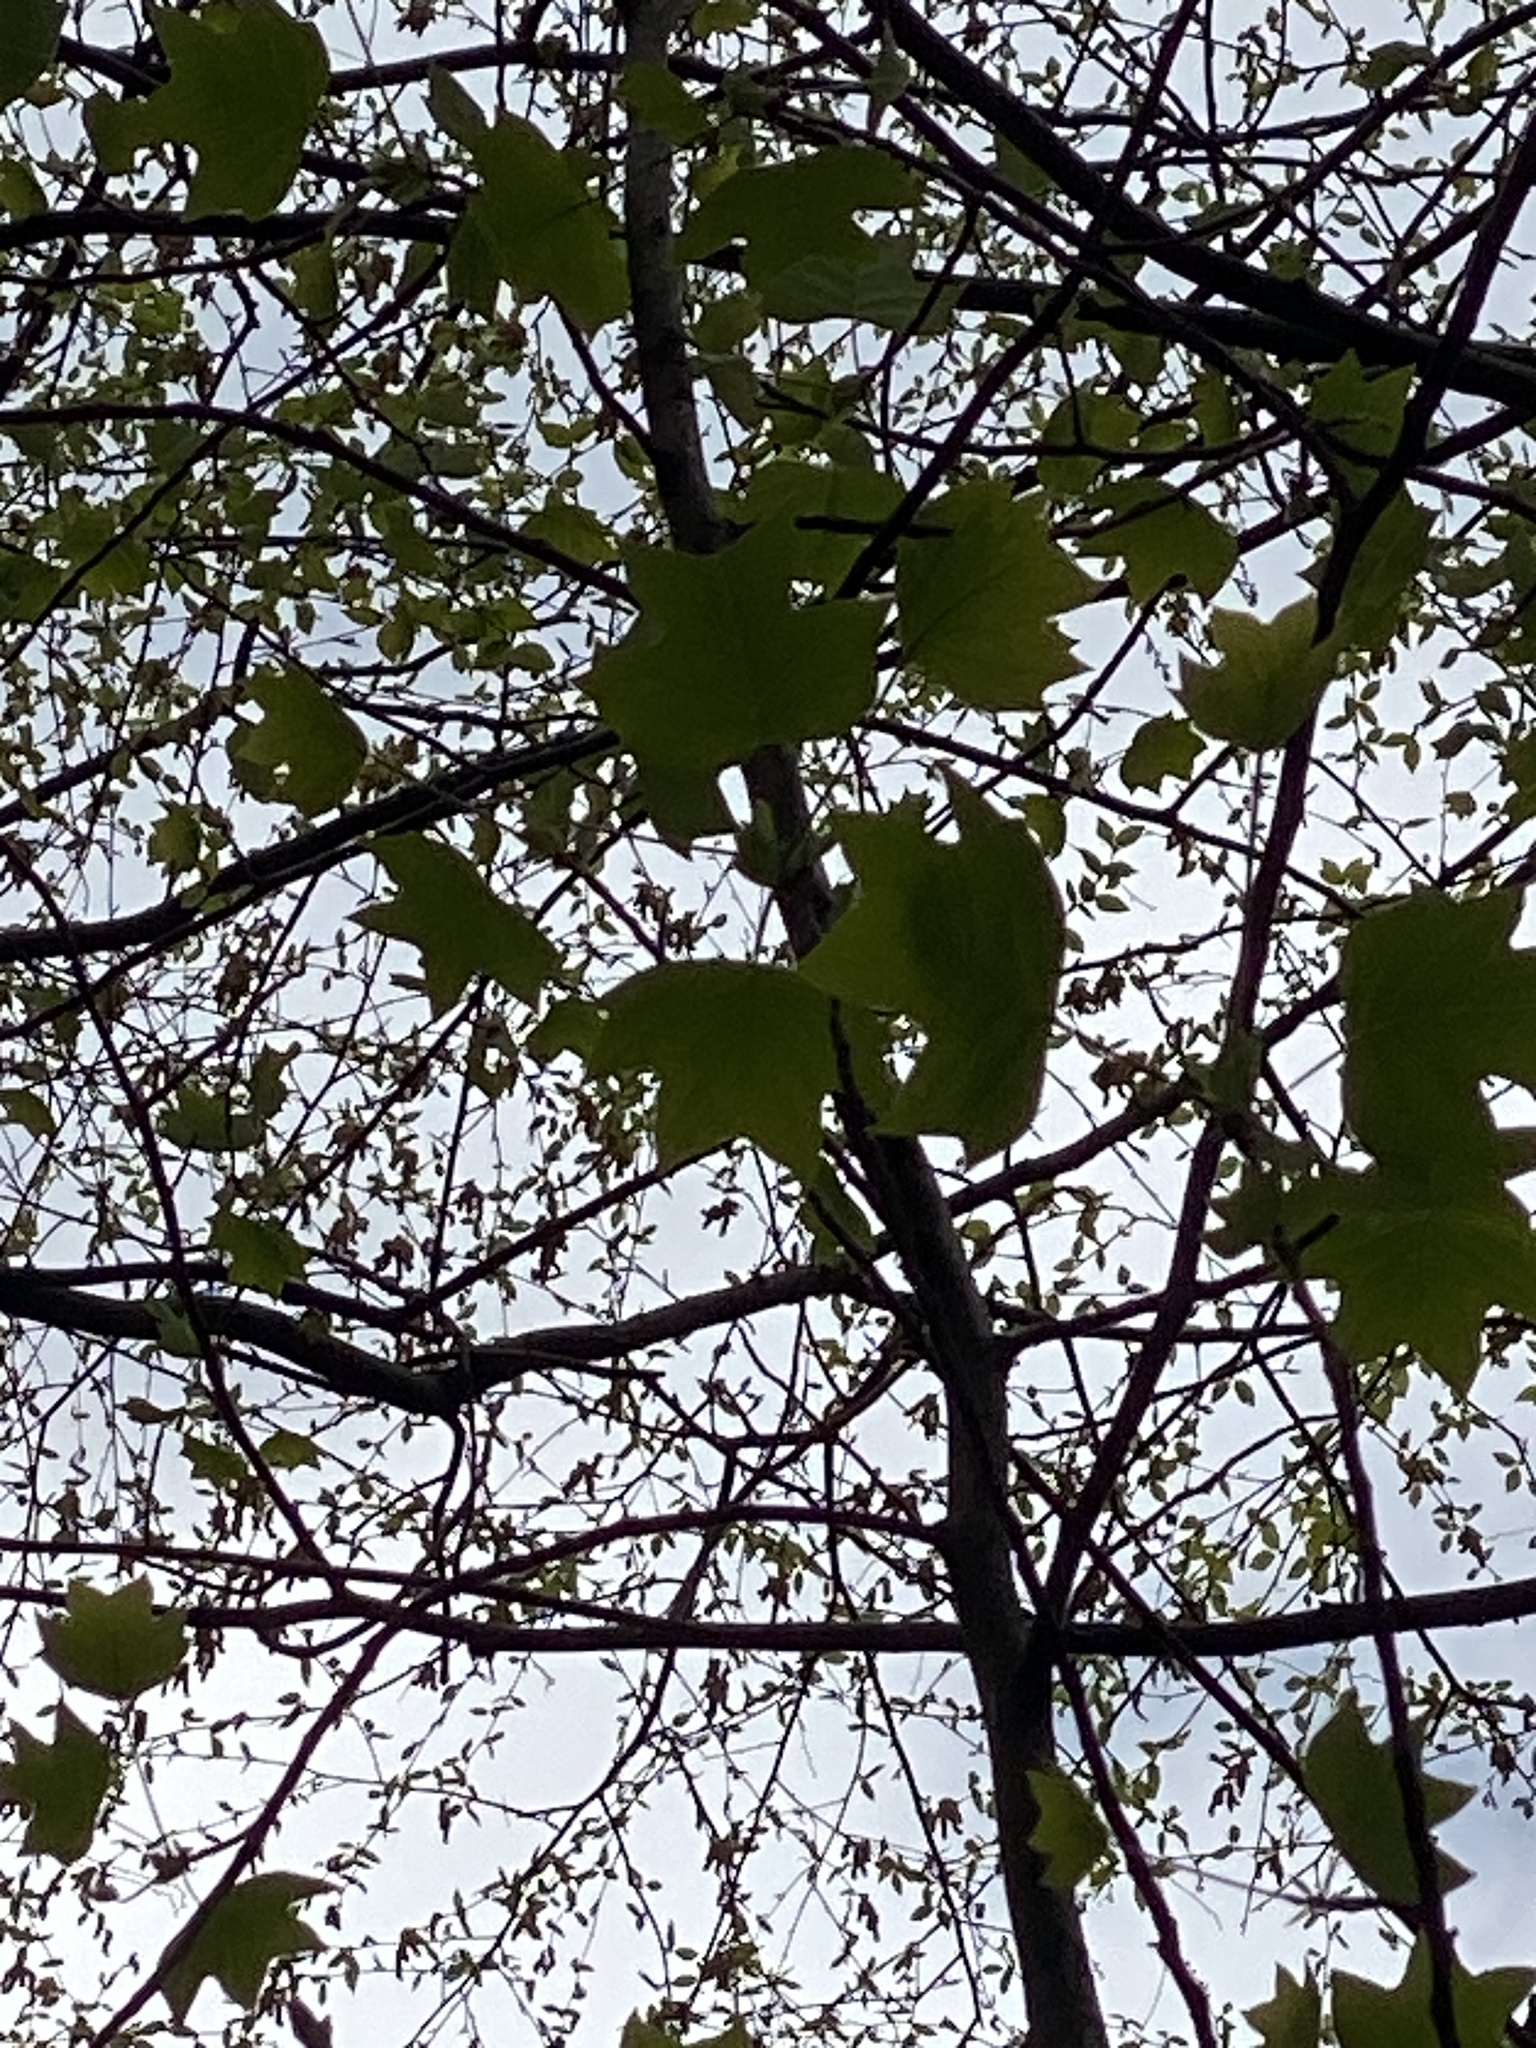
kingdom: Plantae
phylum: Tracheophyta
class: Magnoliopsida
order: Magnoliales
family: Magnoliaceae
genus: Liriodendron
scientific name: Liriodendron tulipifera
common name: Tulip tree
